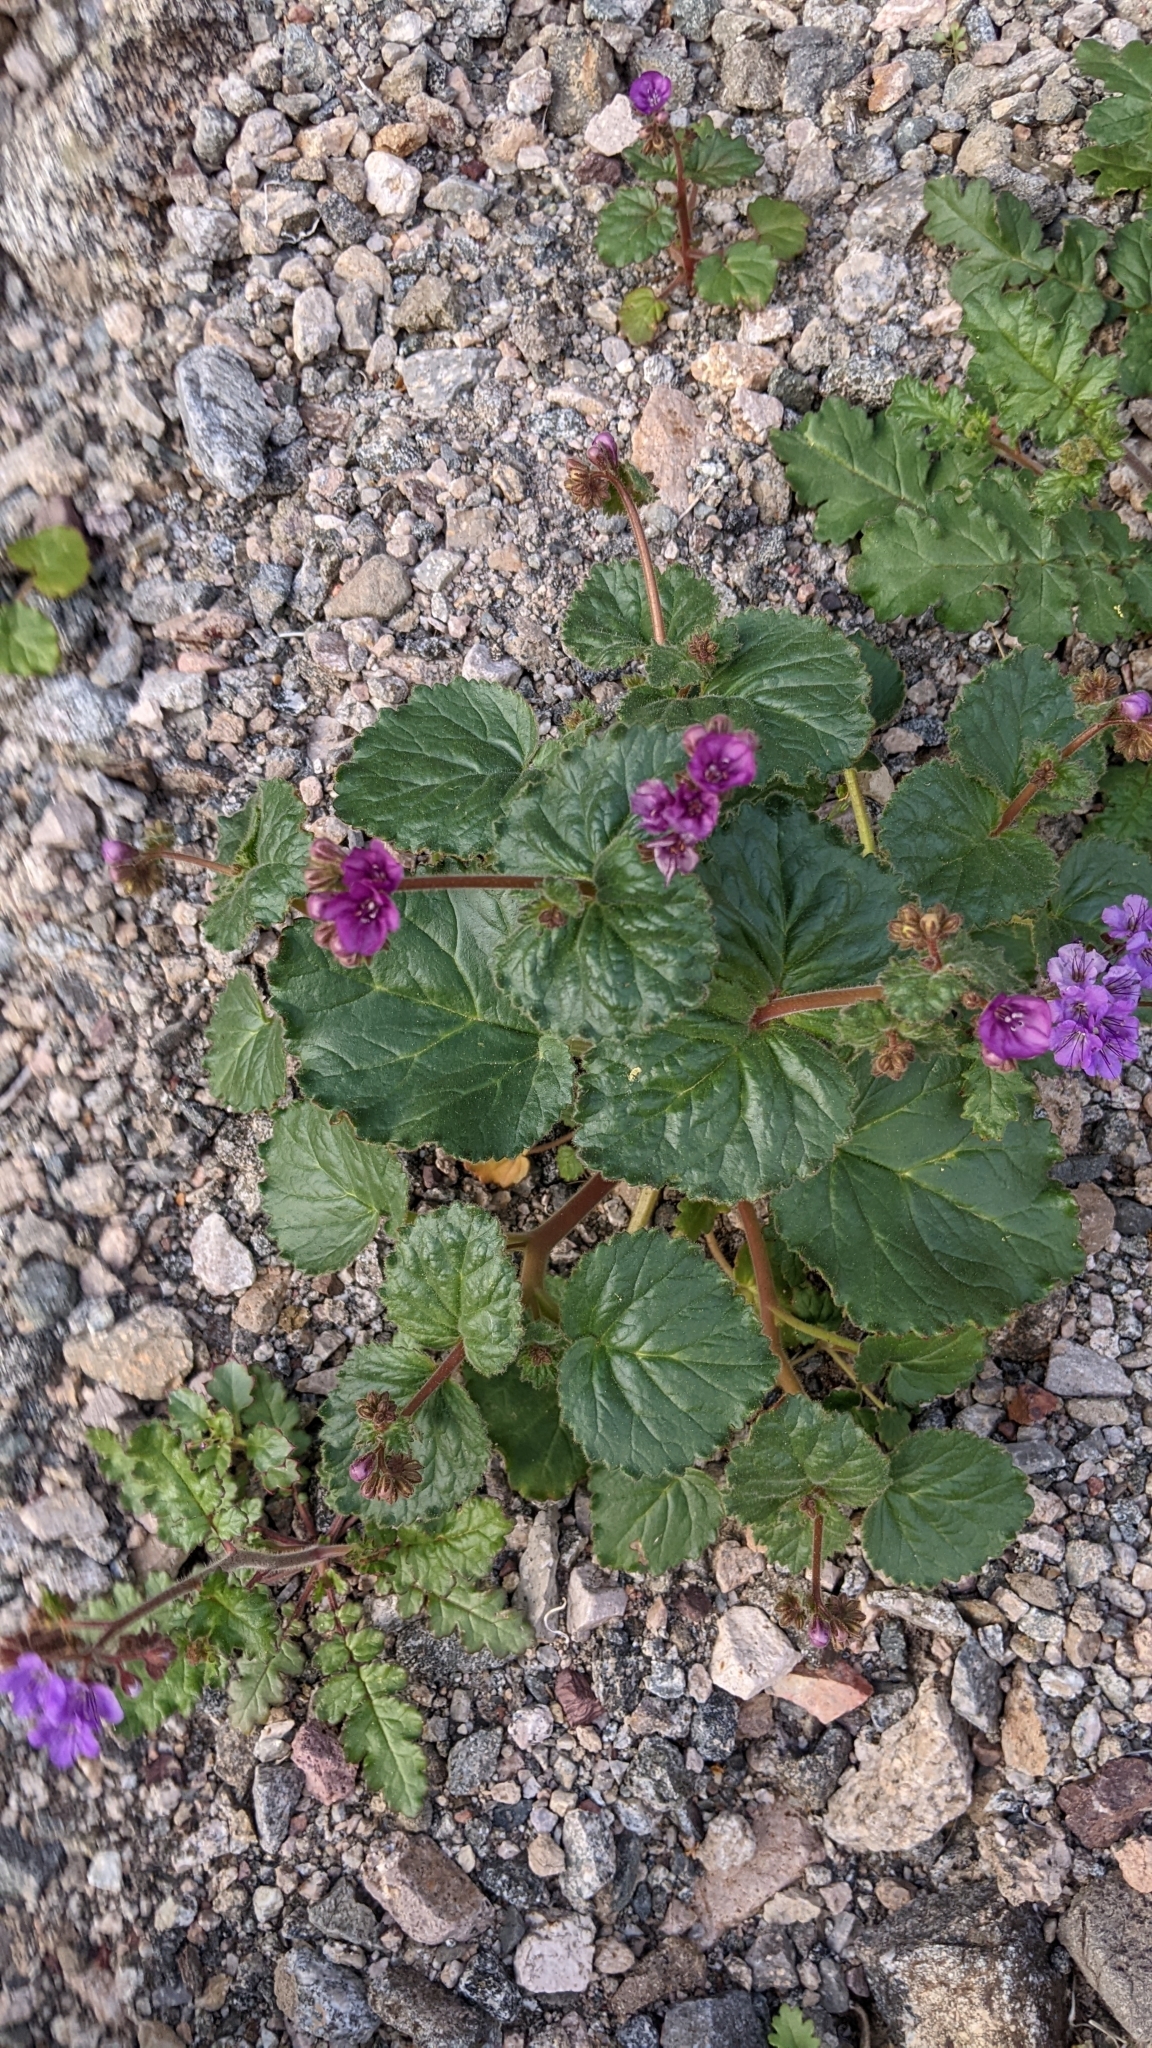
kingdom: Plantae
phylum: Tracheophyta
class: Magnoliopsida
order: Boraginales
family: Hydrophyllaceae
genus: Phacelia
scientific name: Phacelia calthifolia
